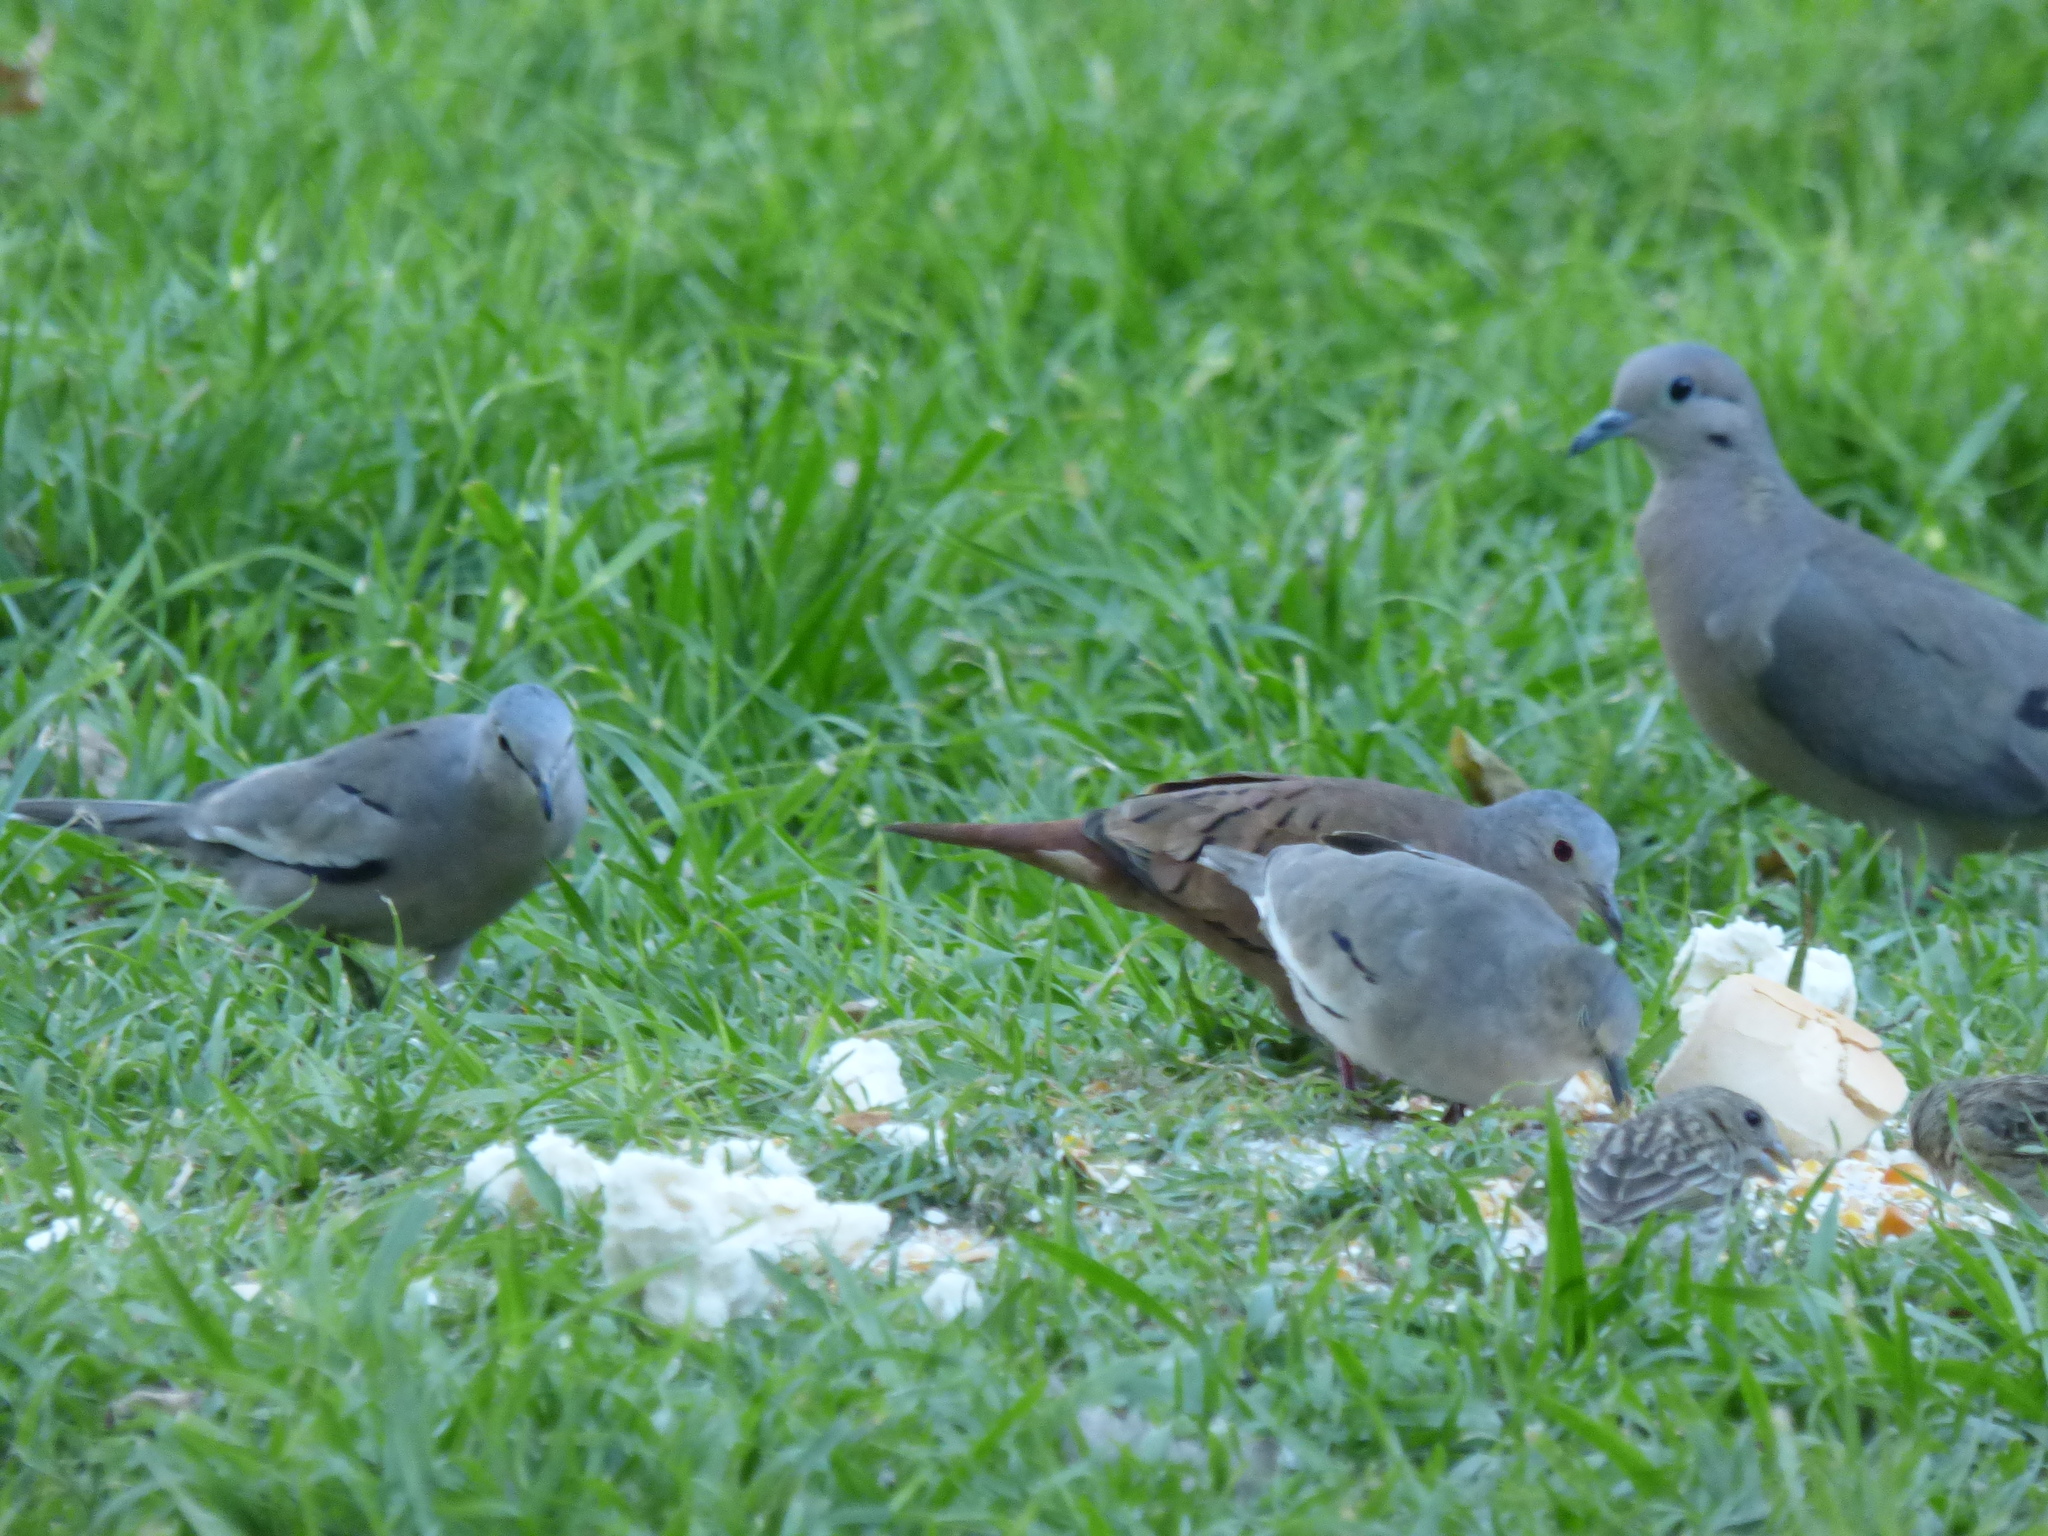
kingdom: Animalia
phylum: Chordata
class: Aves
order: Columbiformes
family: Columbidae
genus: Columbina
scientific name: Columbina picui
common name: Picui ground dove
